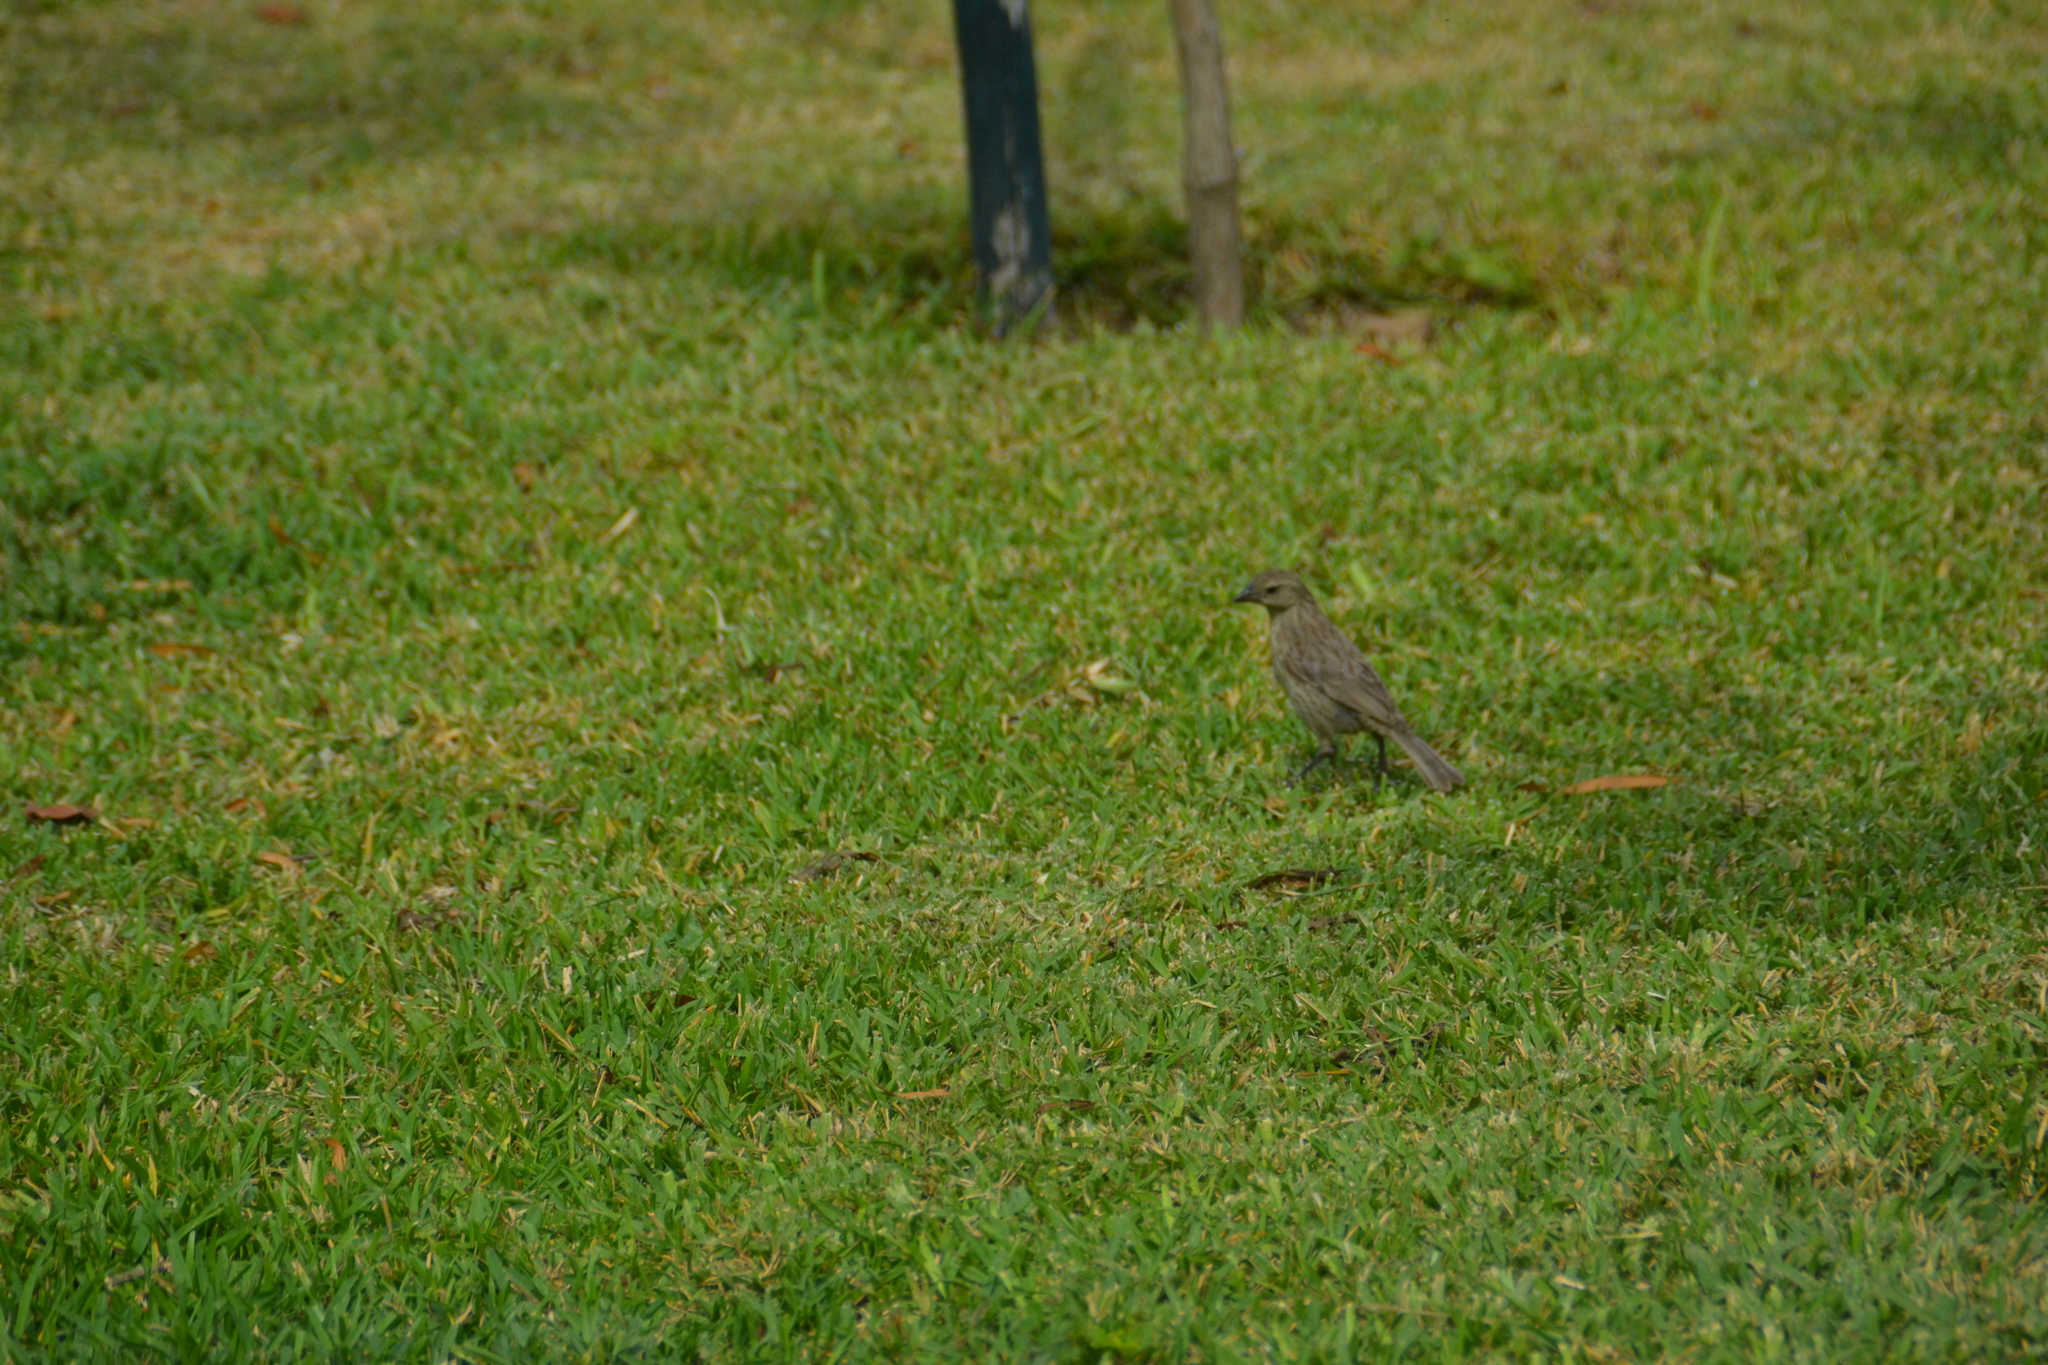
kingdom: Animalia
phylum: Chordata
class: Aves
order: Passeriformes
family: Icteridae
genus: Molothrus
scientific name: Molothrus bonariensis
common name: Shiny cowbird
